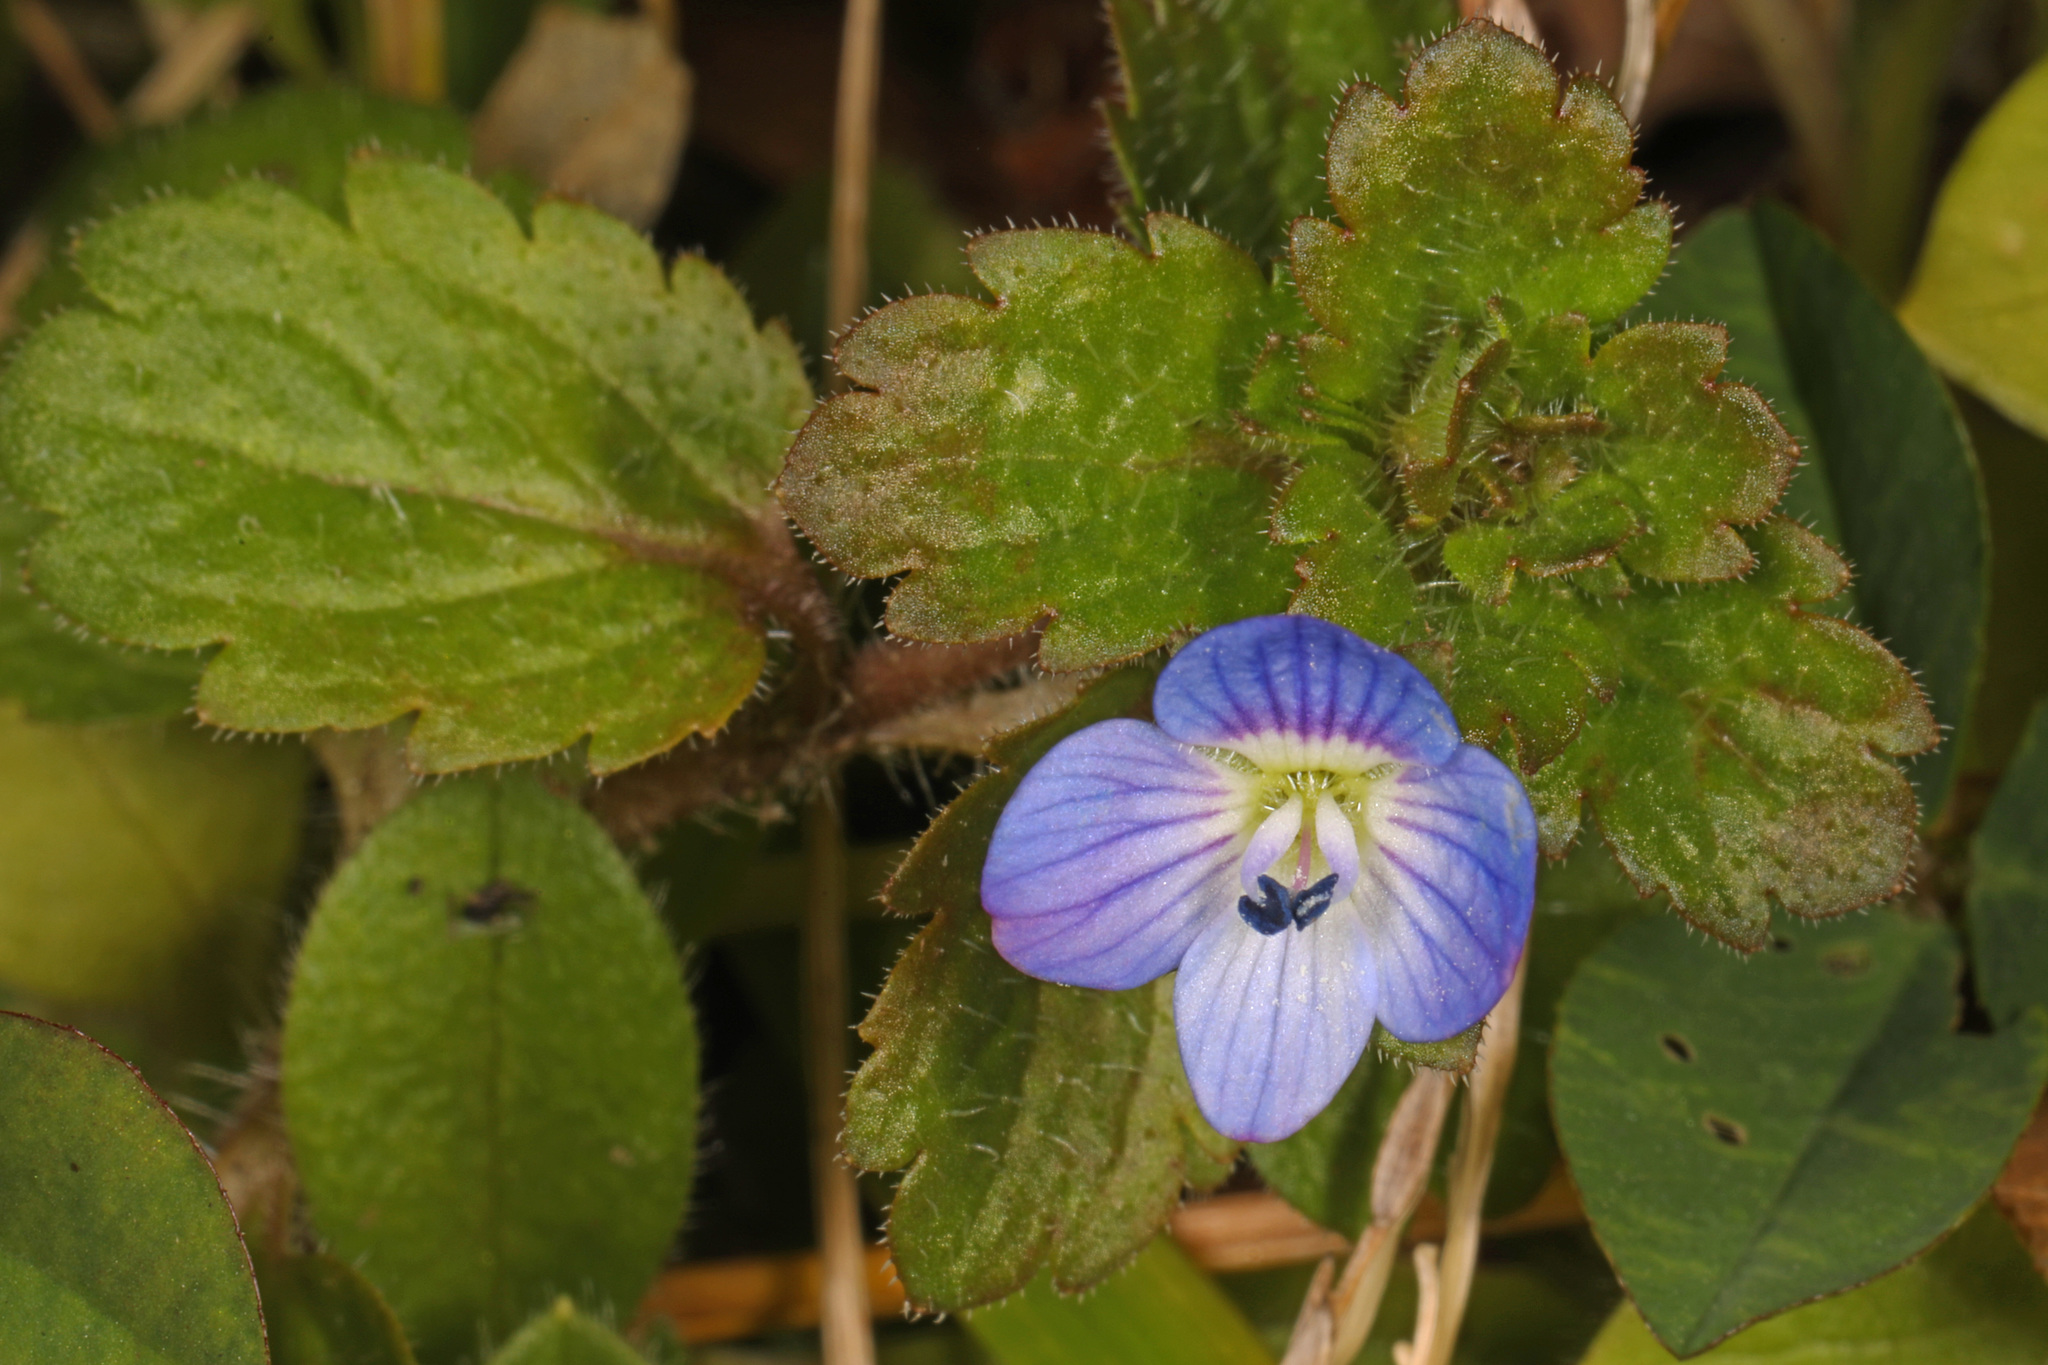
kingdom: Plantae
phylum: Tracheophyta
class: Magnoliopsida
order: Lamiales
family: Plantaginaceae
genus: Veronica
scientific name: Veronica persica
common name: Common field-speedwell
